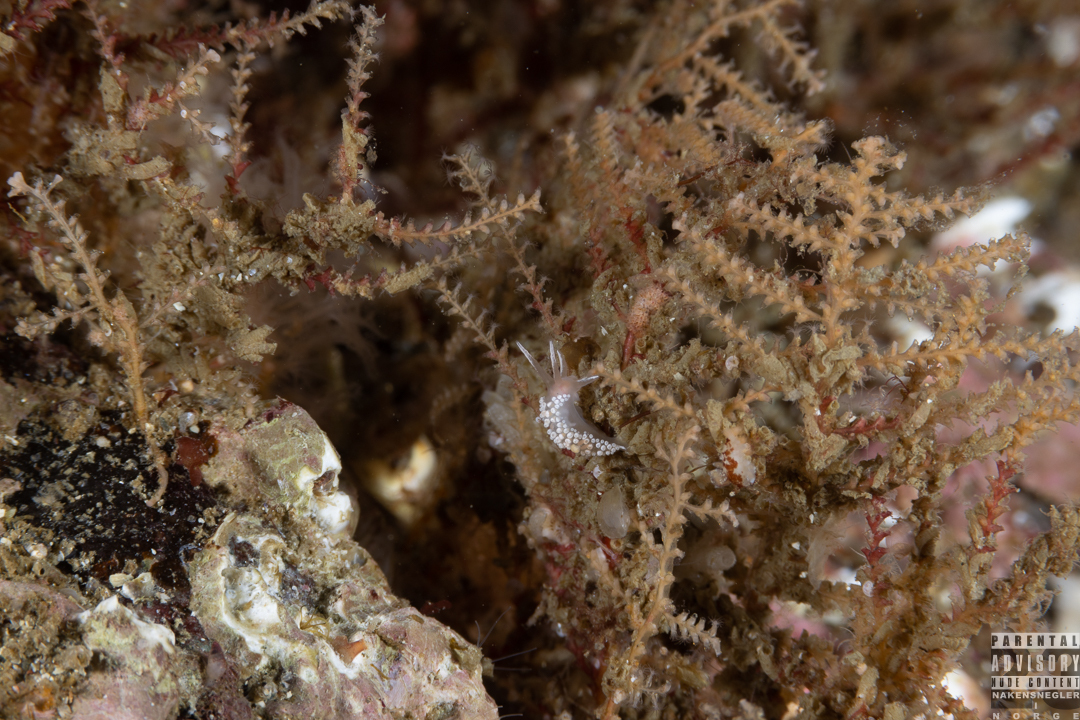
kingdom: Animalia
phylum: Mollusca
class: Gastropoda
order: Nudibranchia
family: Coryphellidae
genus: Coryphella
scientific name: Coryphella verrucosa
